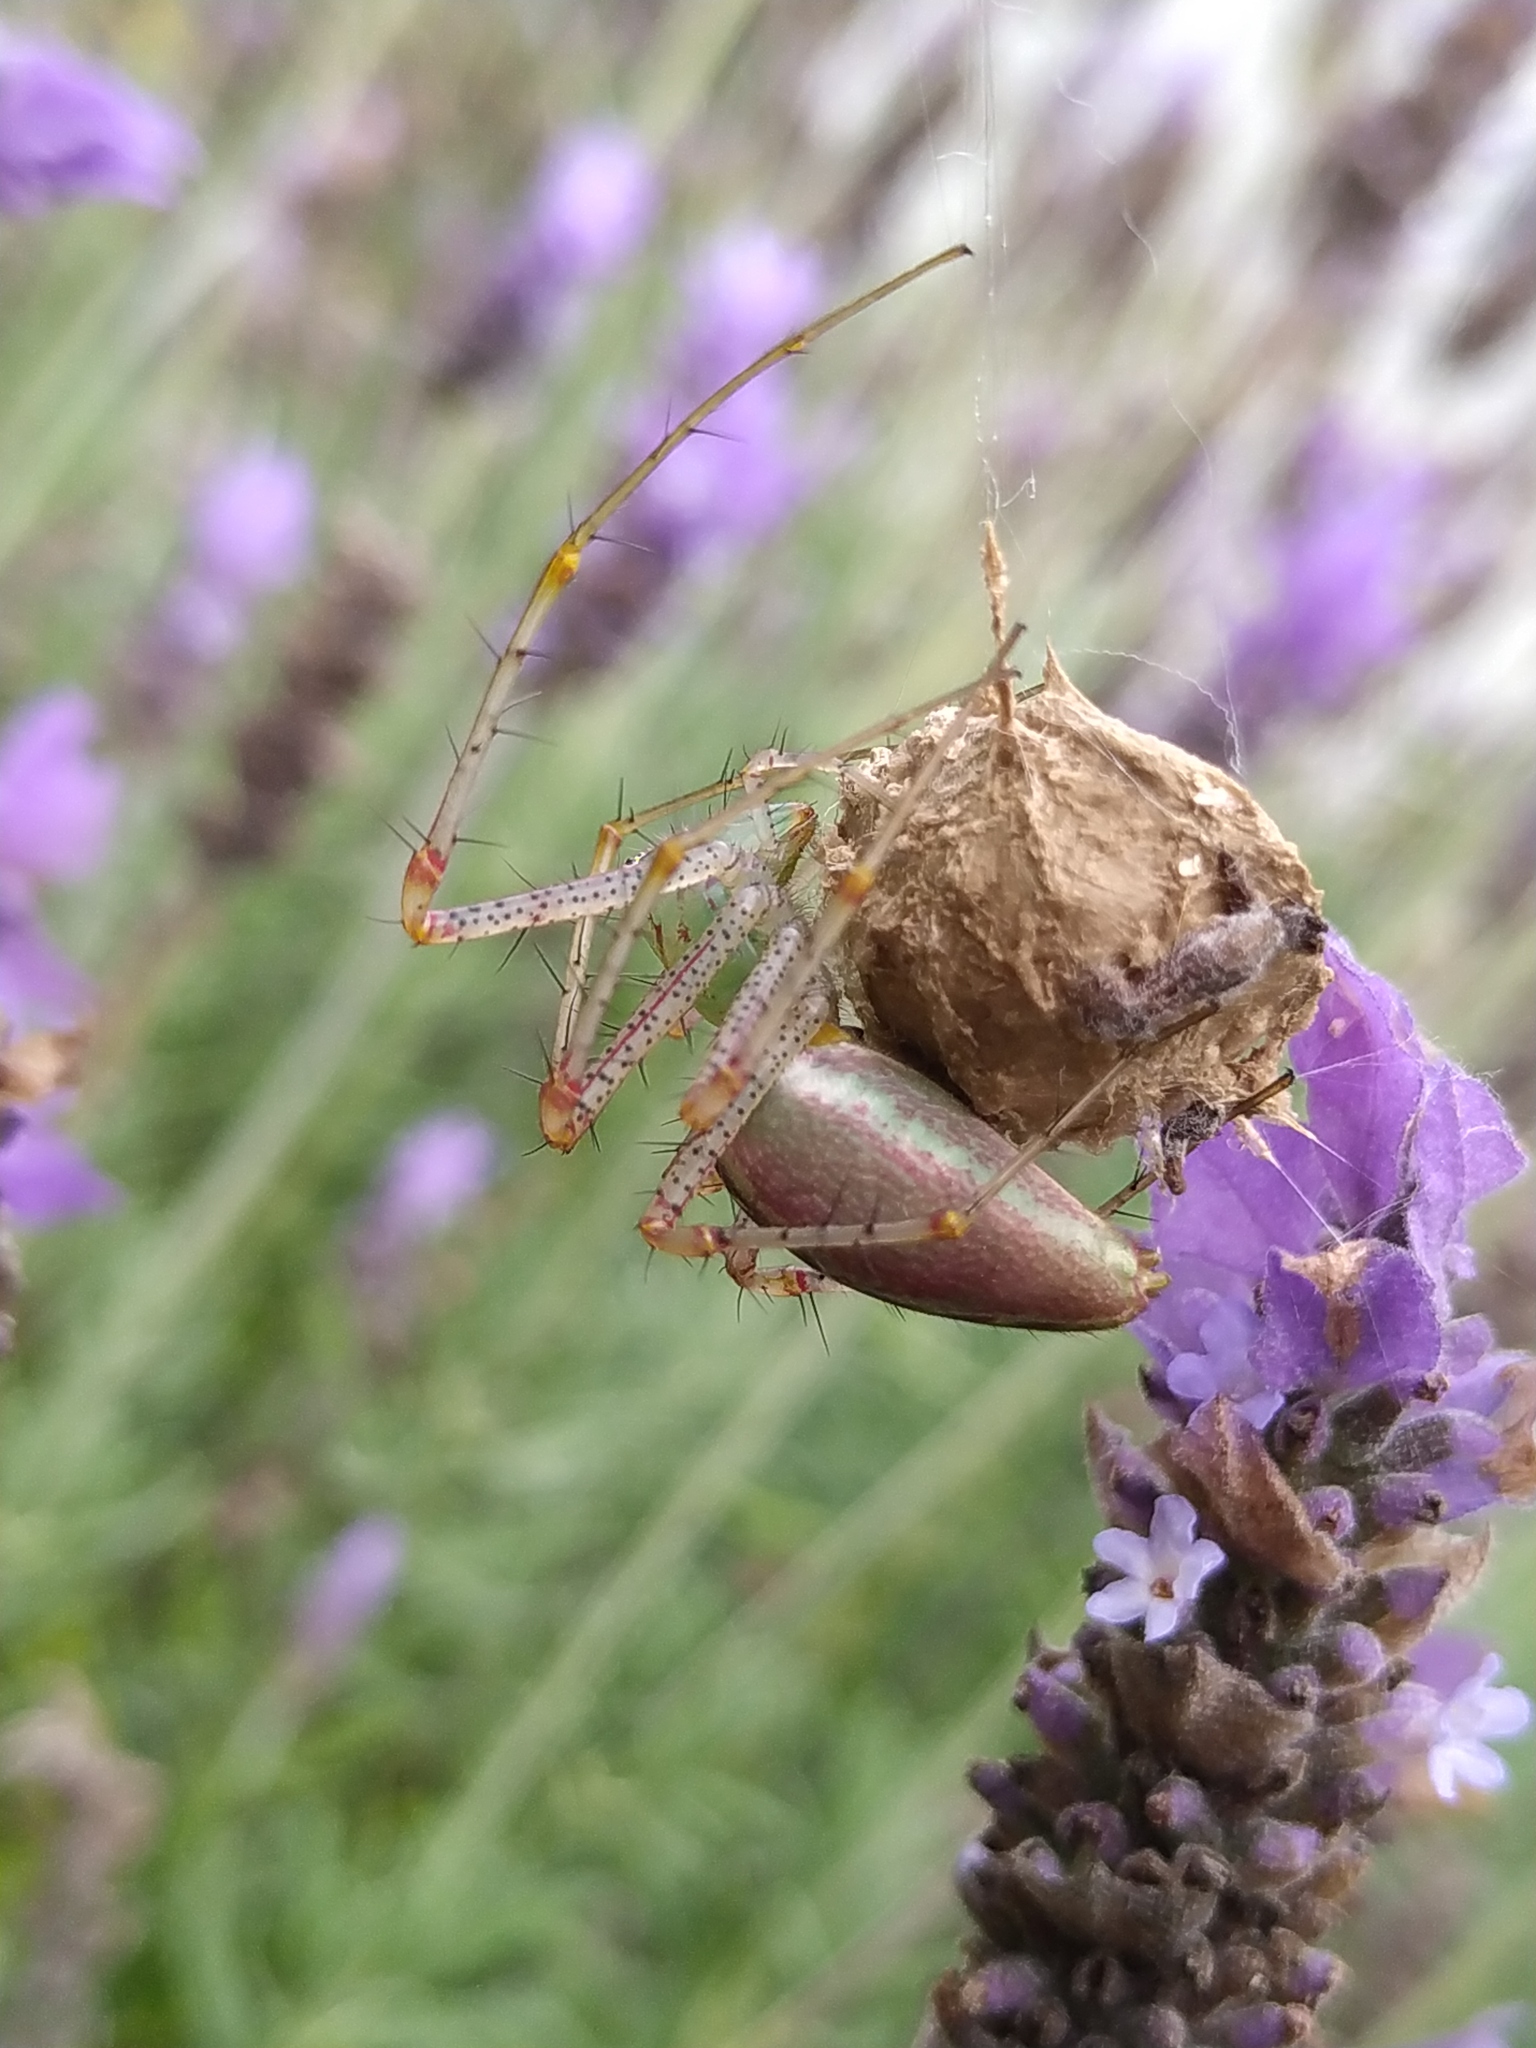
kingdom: Animalia
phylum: Arthropoda
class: Arachnida
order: Araneae
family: Oxyopidae
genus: Peucetia
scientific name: Peucetia viridans
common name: Lynx spiders
